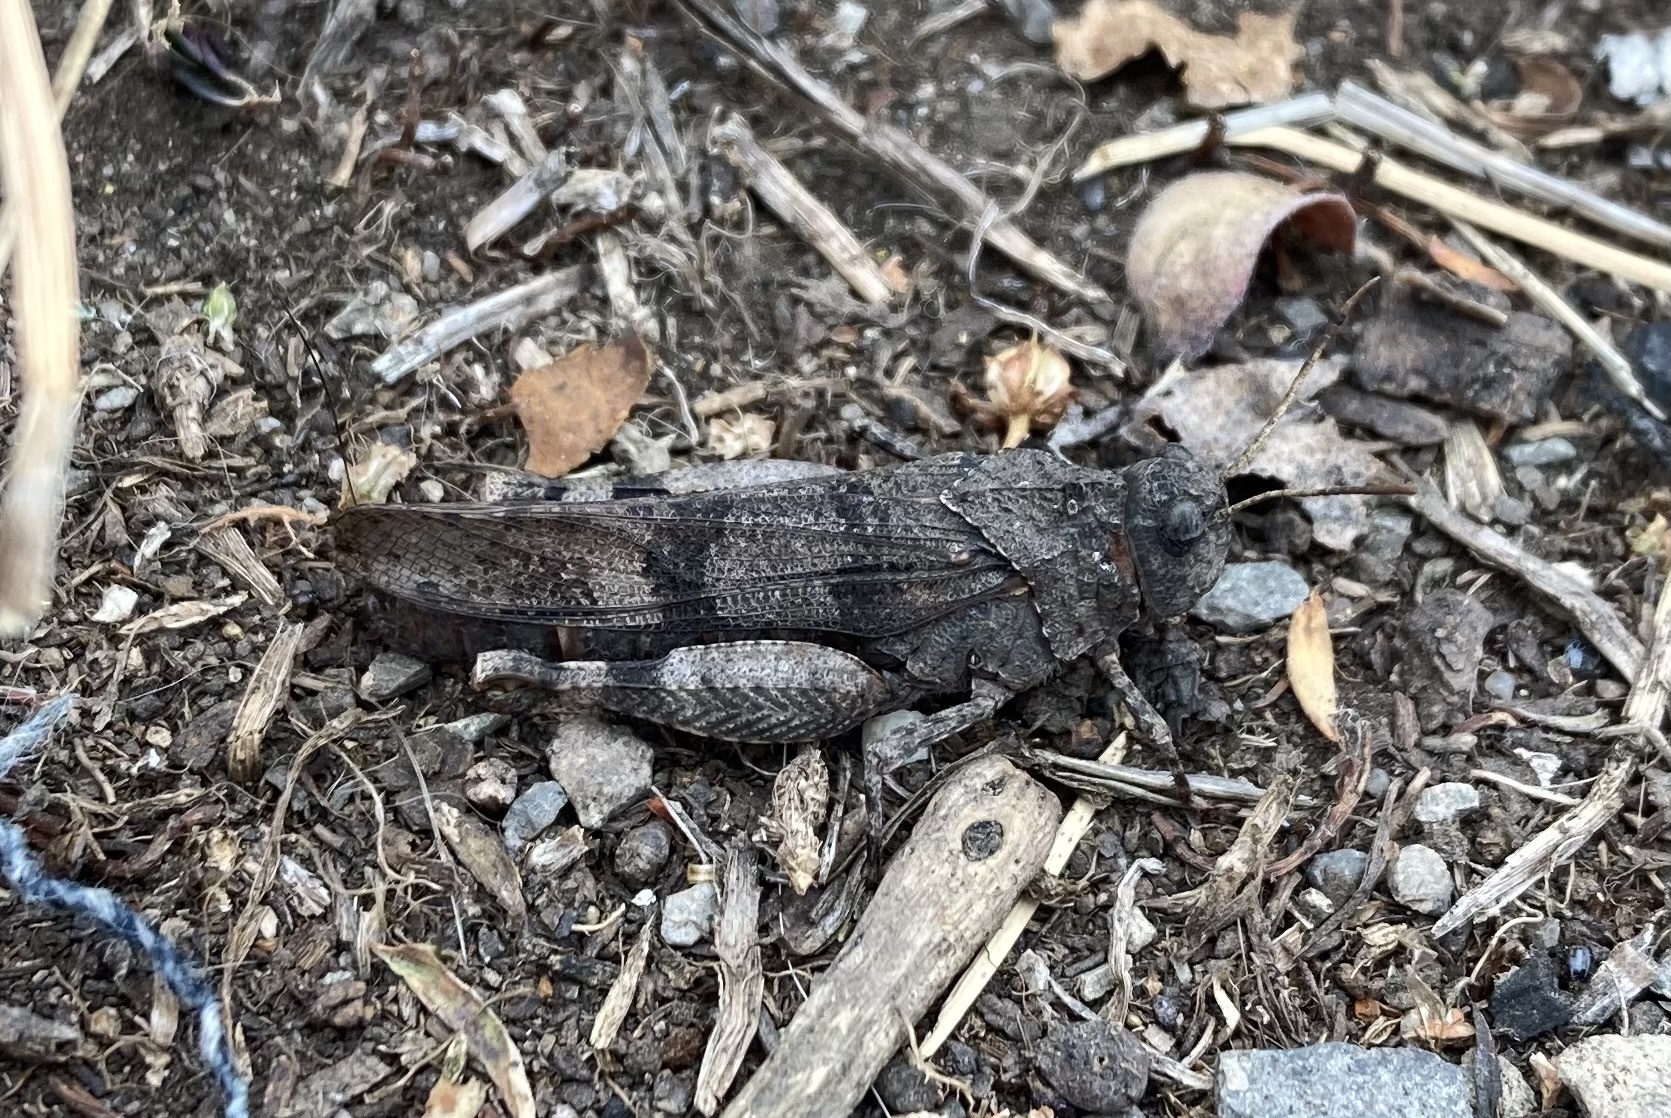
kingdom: Animalia
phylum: Arthropoda
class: Insecta
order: Orthoptera
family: Acrididae
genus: Oedipoda
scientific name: Oedipoda caerulescens
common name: Blue-winged grasshopper
